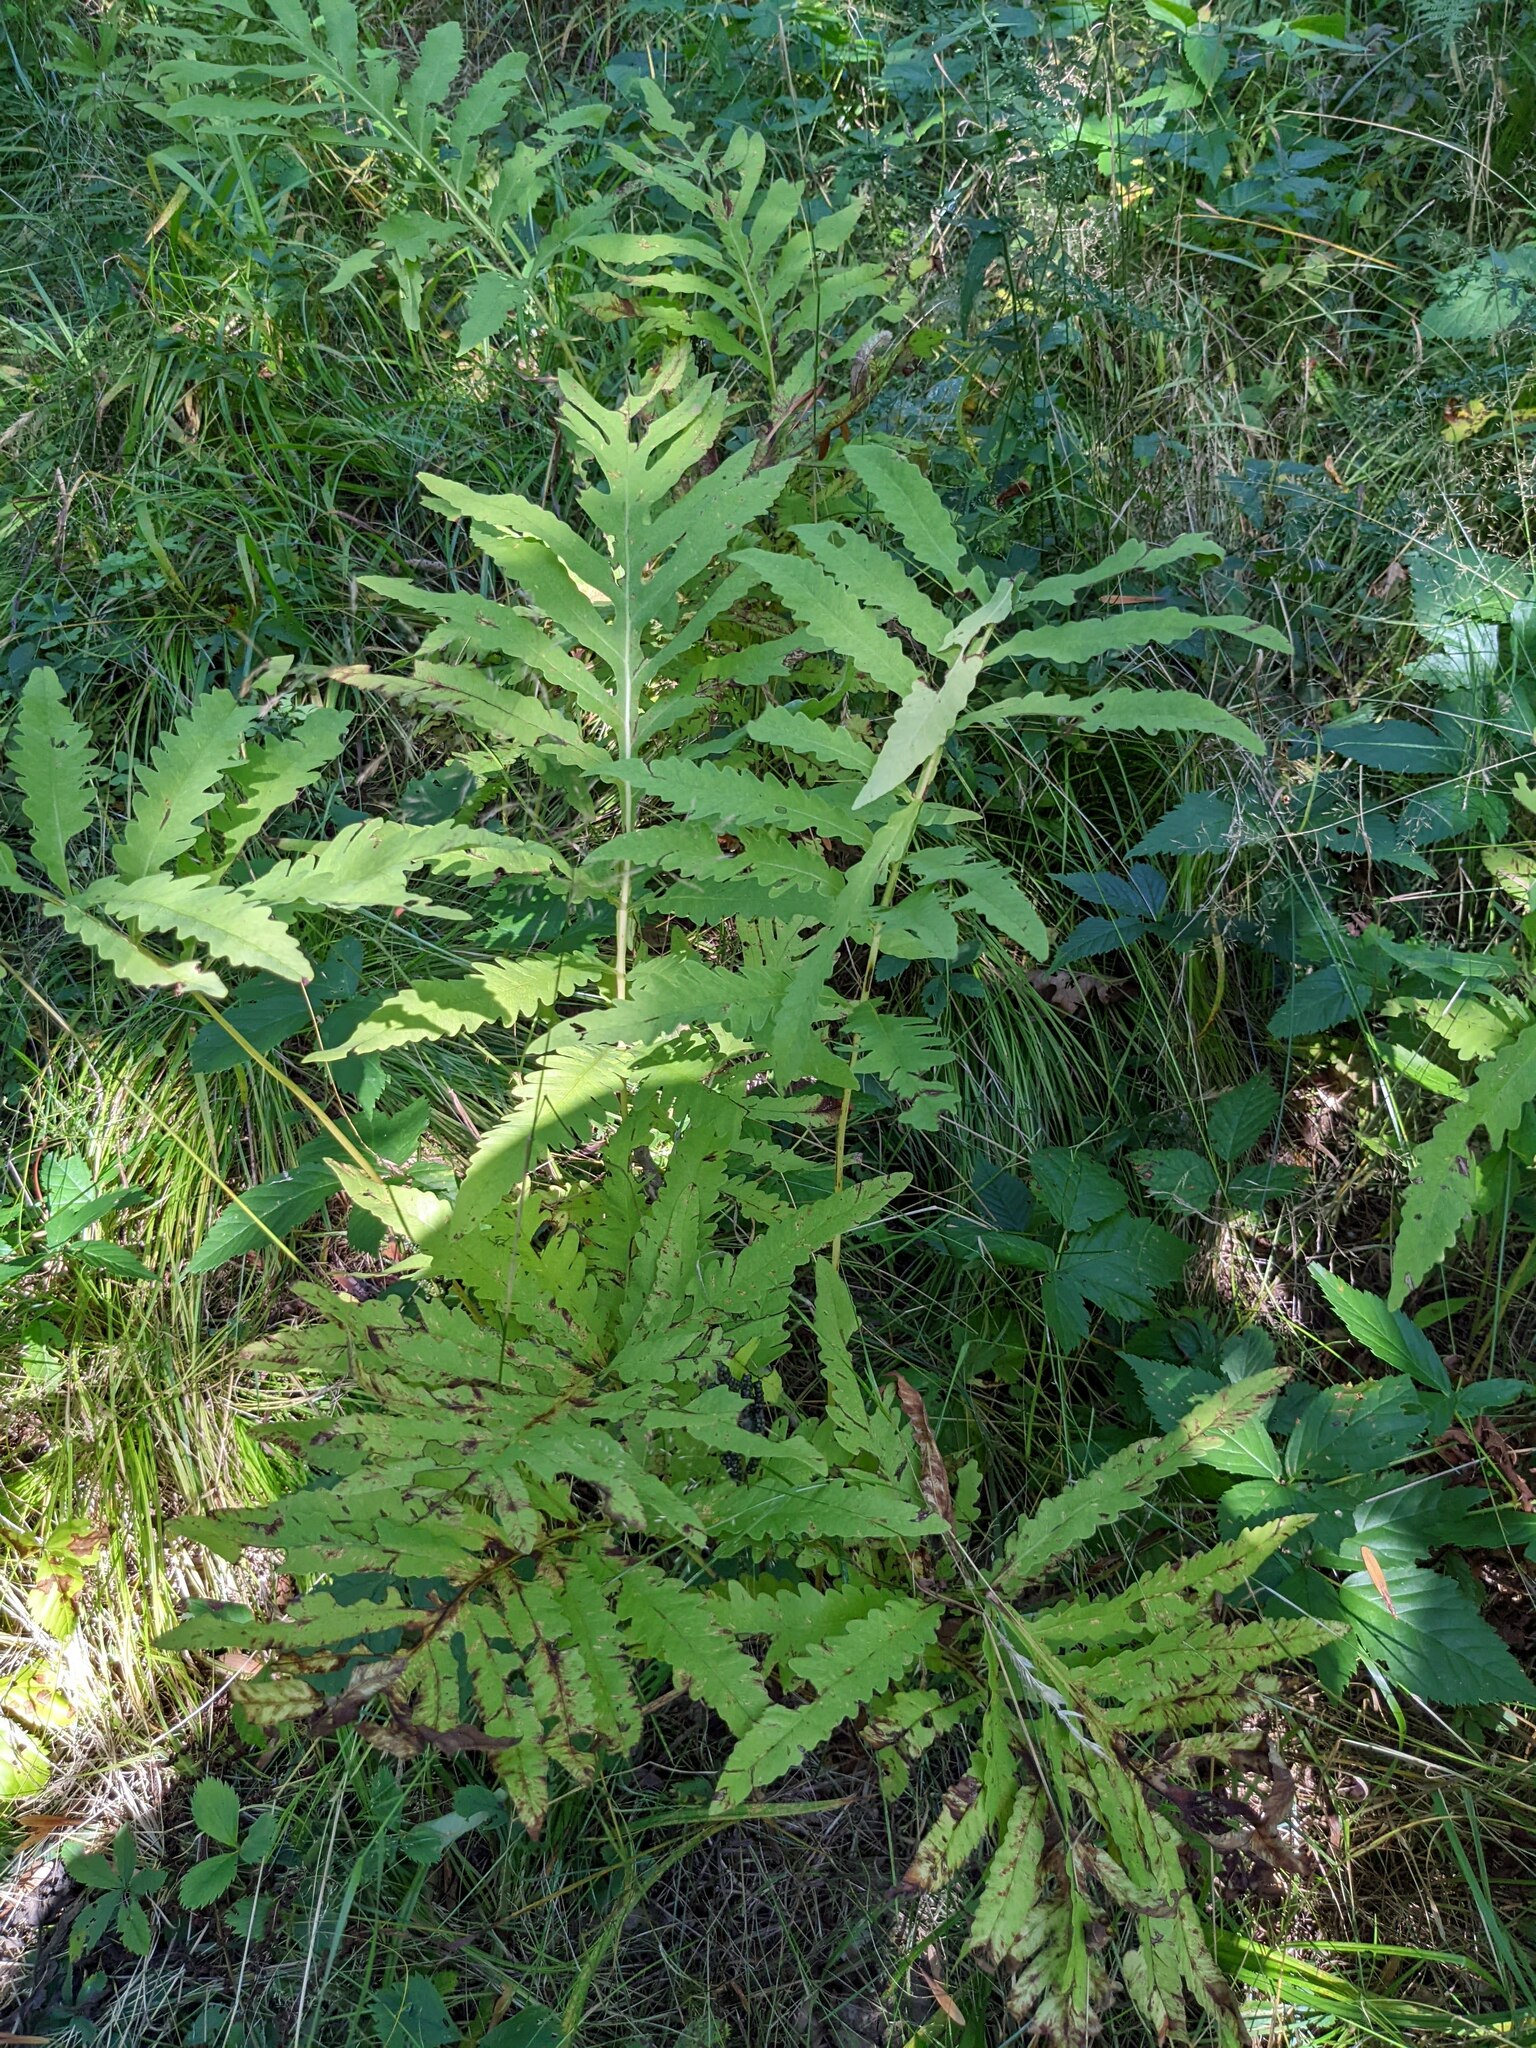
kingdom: Plantae
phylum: Tracheophyta
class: Polypodiopsida
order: Polypodiales
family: Onocleaceae
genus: Onoclea
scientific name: Onoclea sensibilis
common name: Sensitive fern
